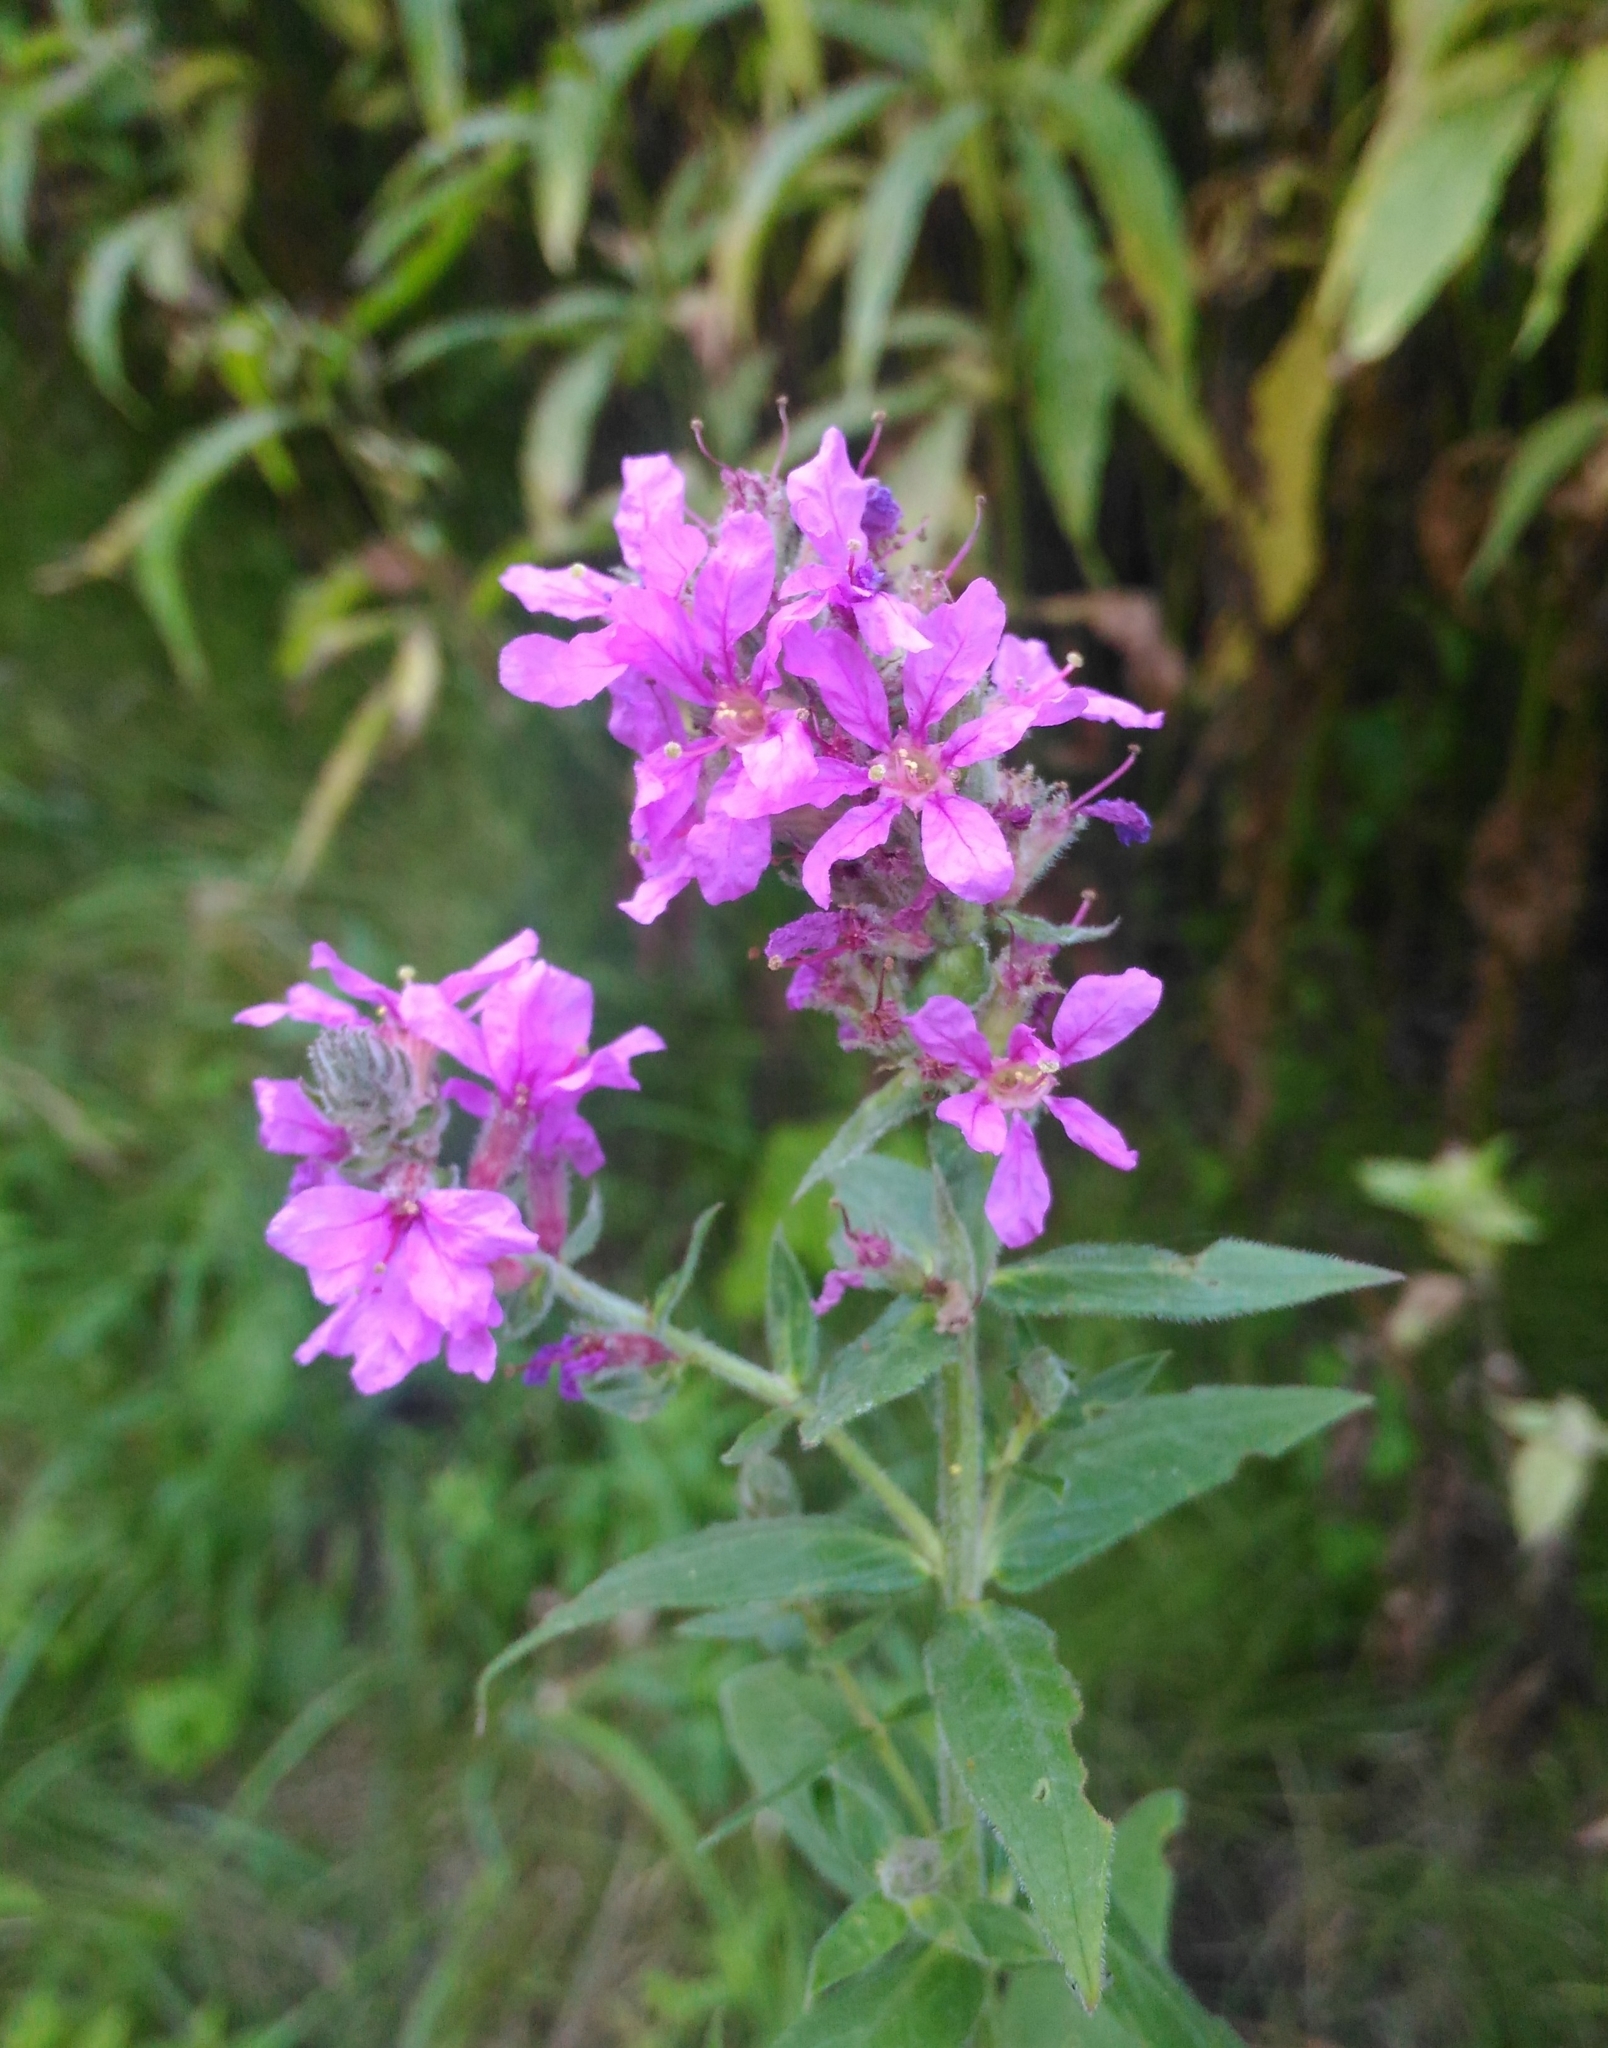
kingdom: Plantae
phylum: Tracheophyta
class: Magnoliopsida
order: Myrtales
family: Lythraceae
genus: Lythrum
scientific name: Lythrum salicaria
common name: Purple loosestrife
